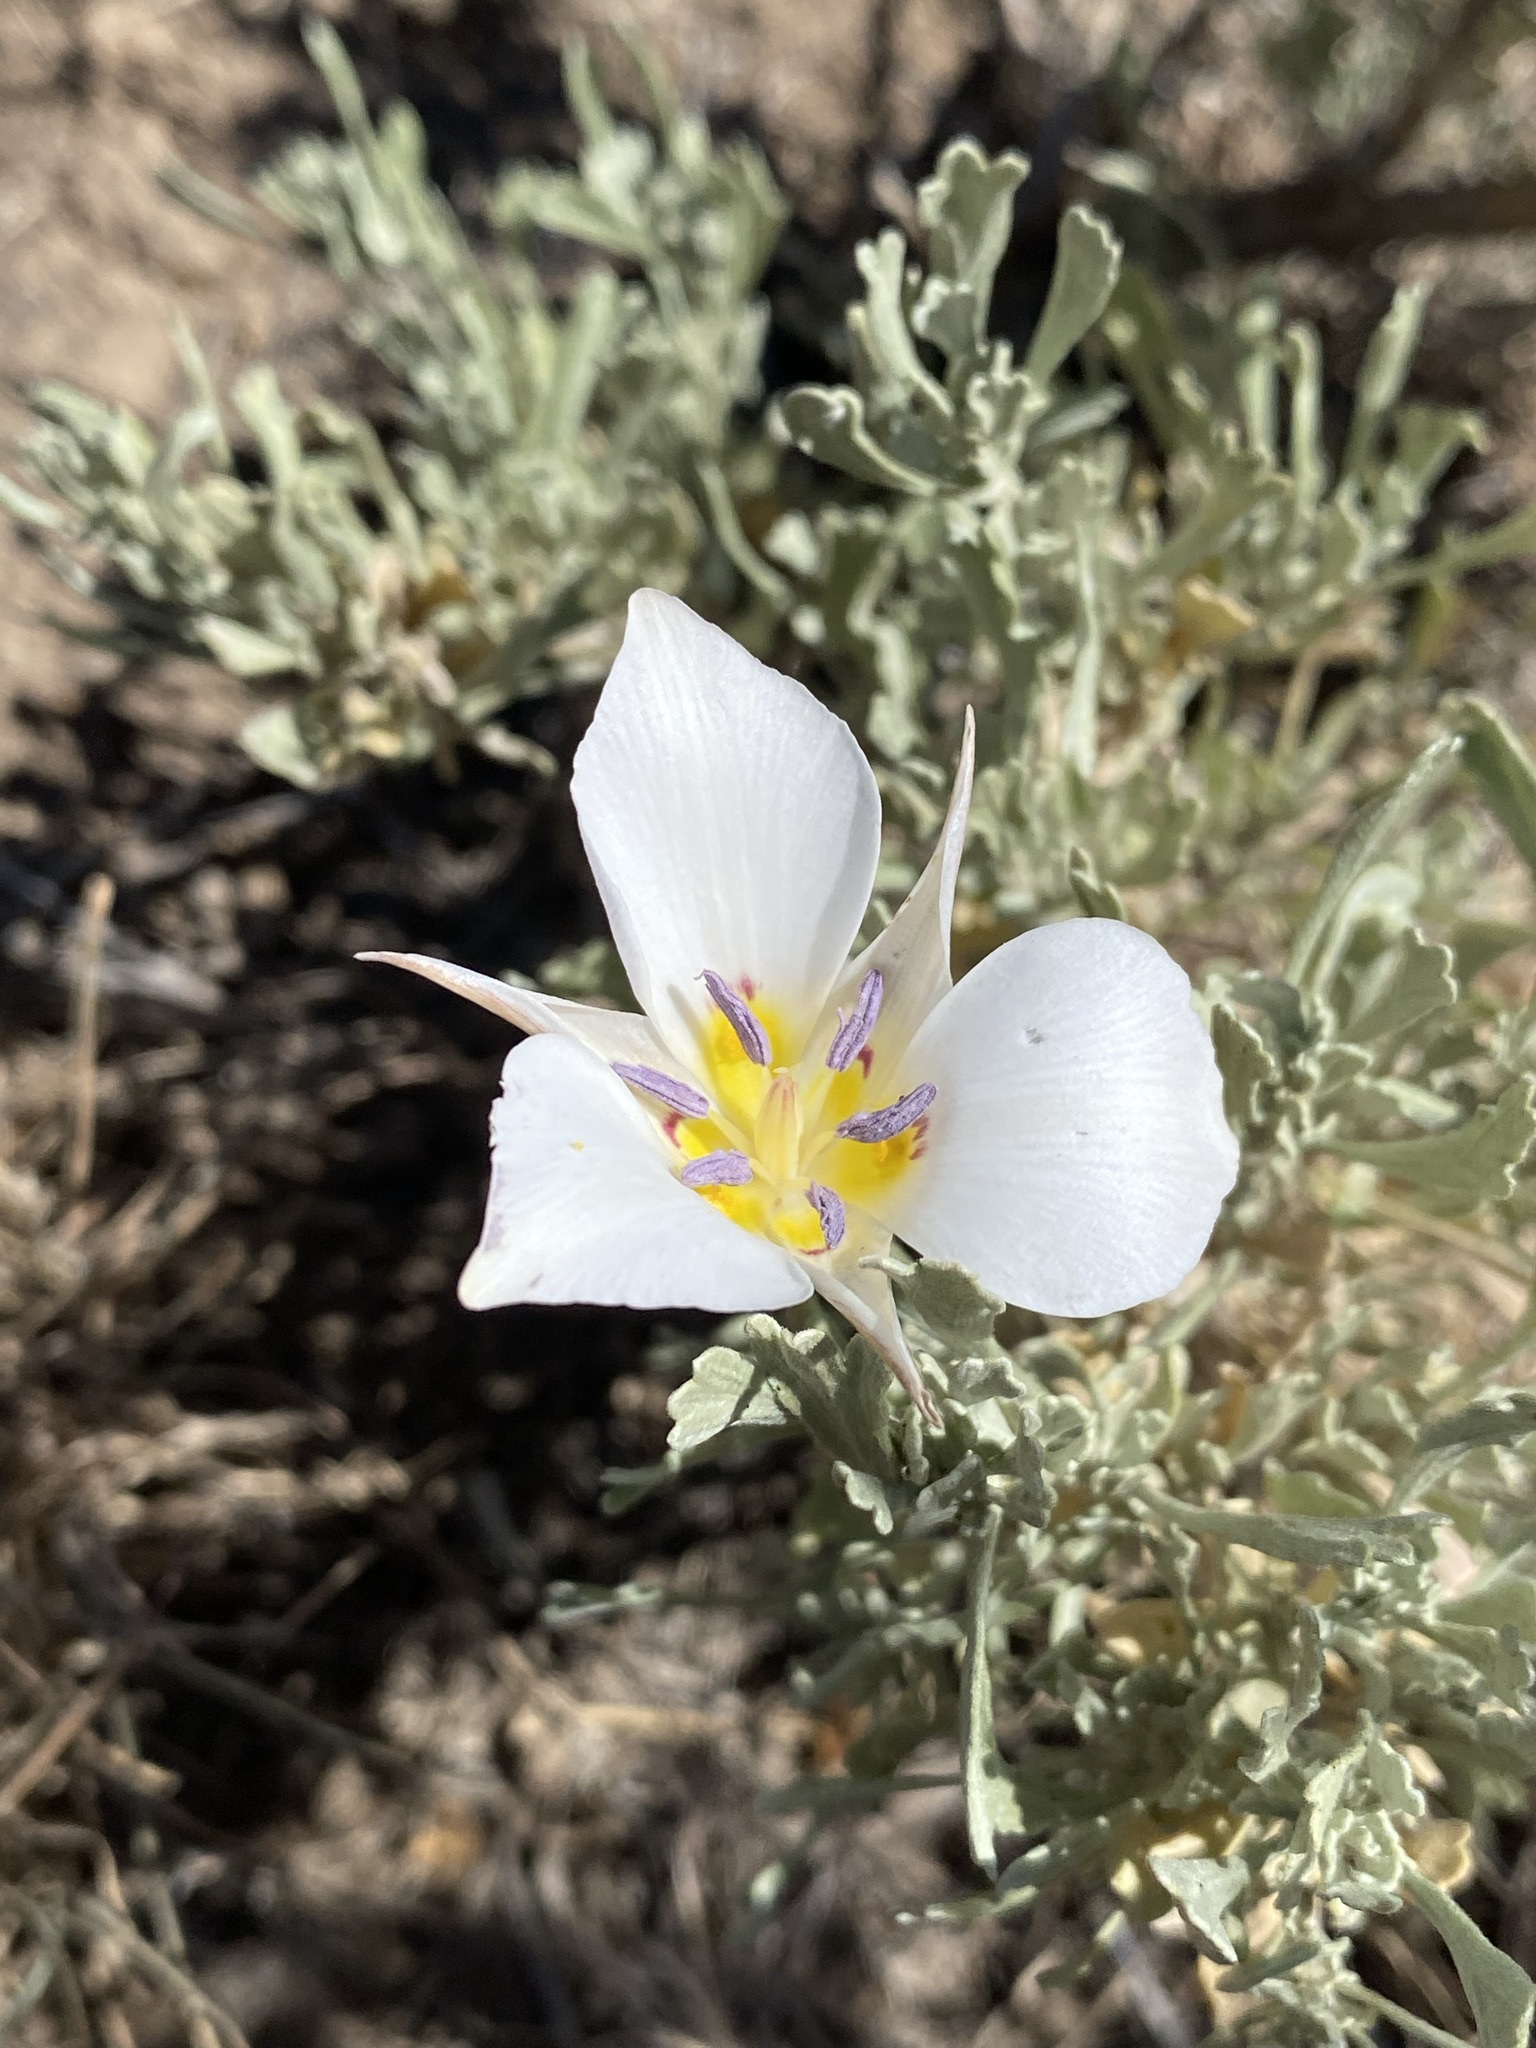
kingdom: Plantae
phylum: Tracheophyta
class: Liliopsida
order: Liliales
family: Liliaceae
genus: Calochortus
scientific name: Calochortus bruneaunis
